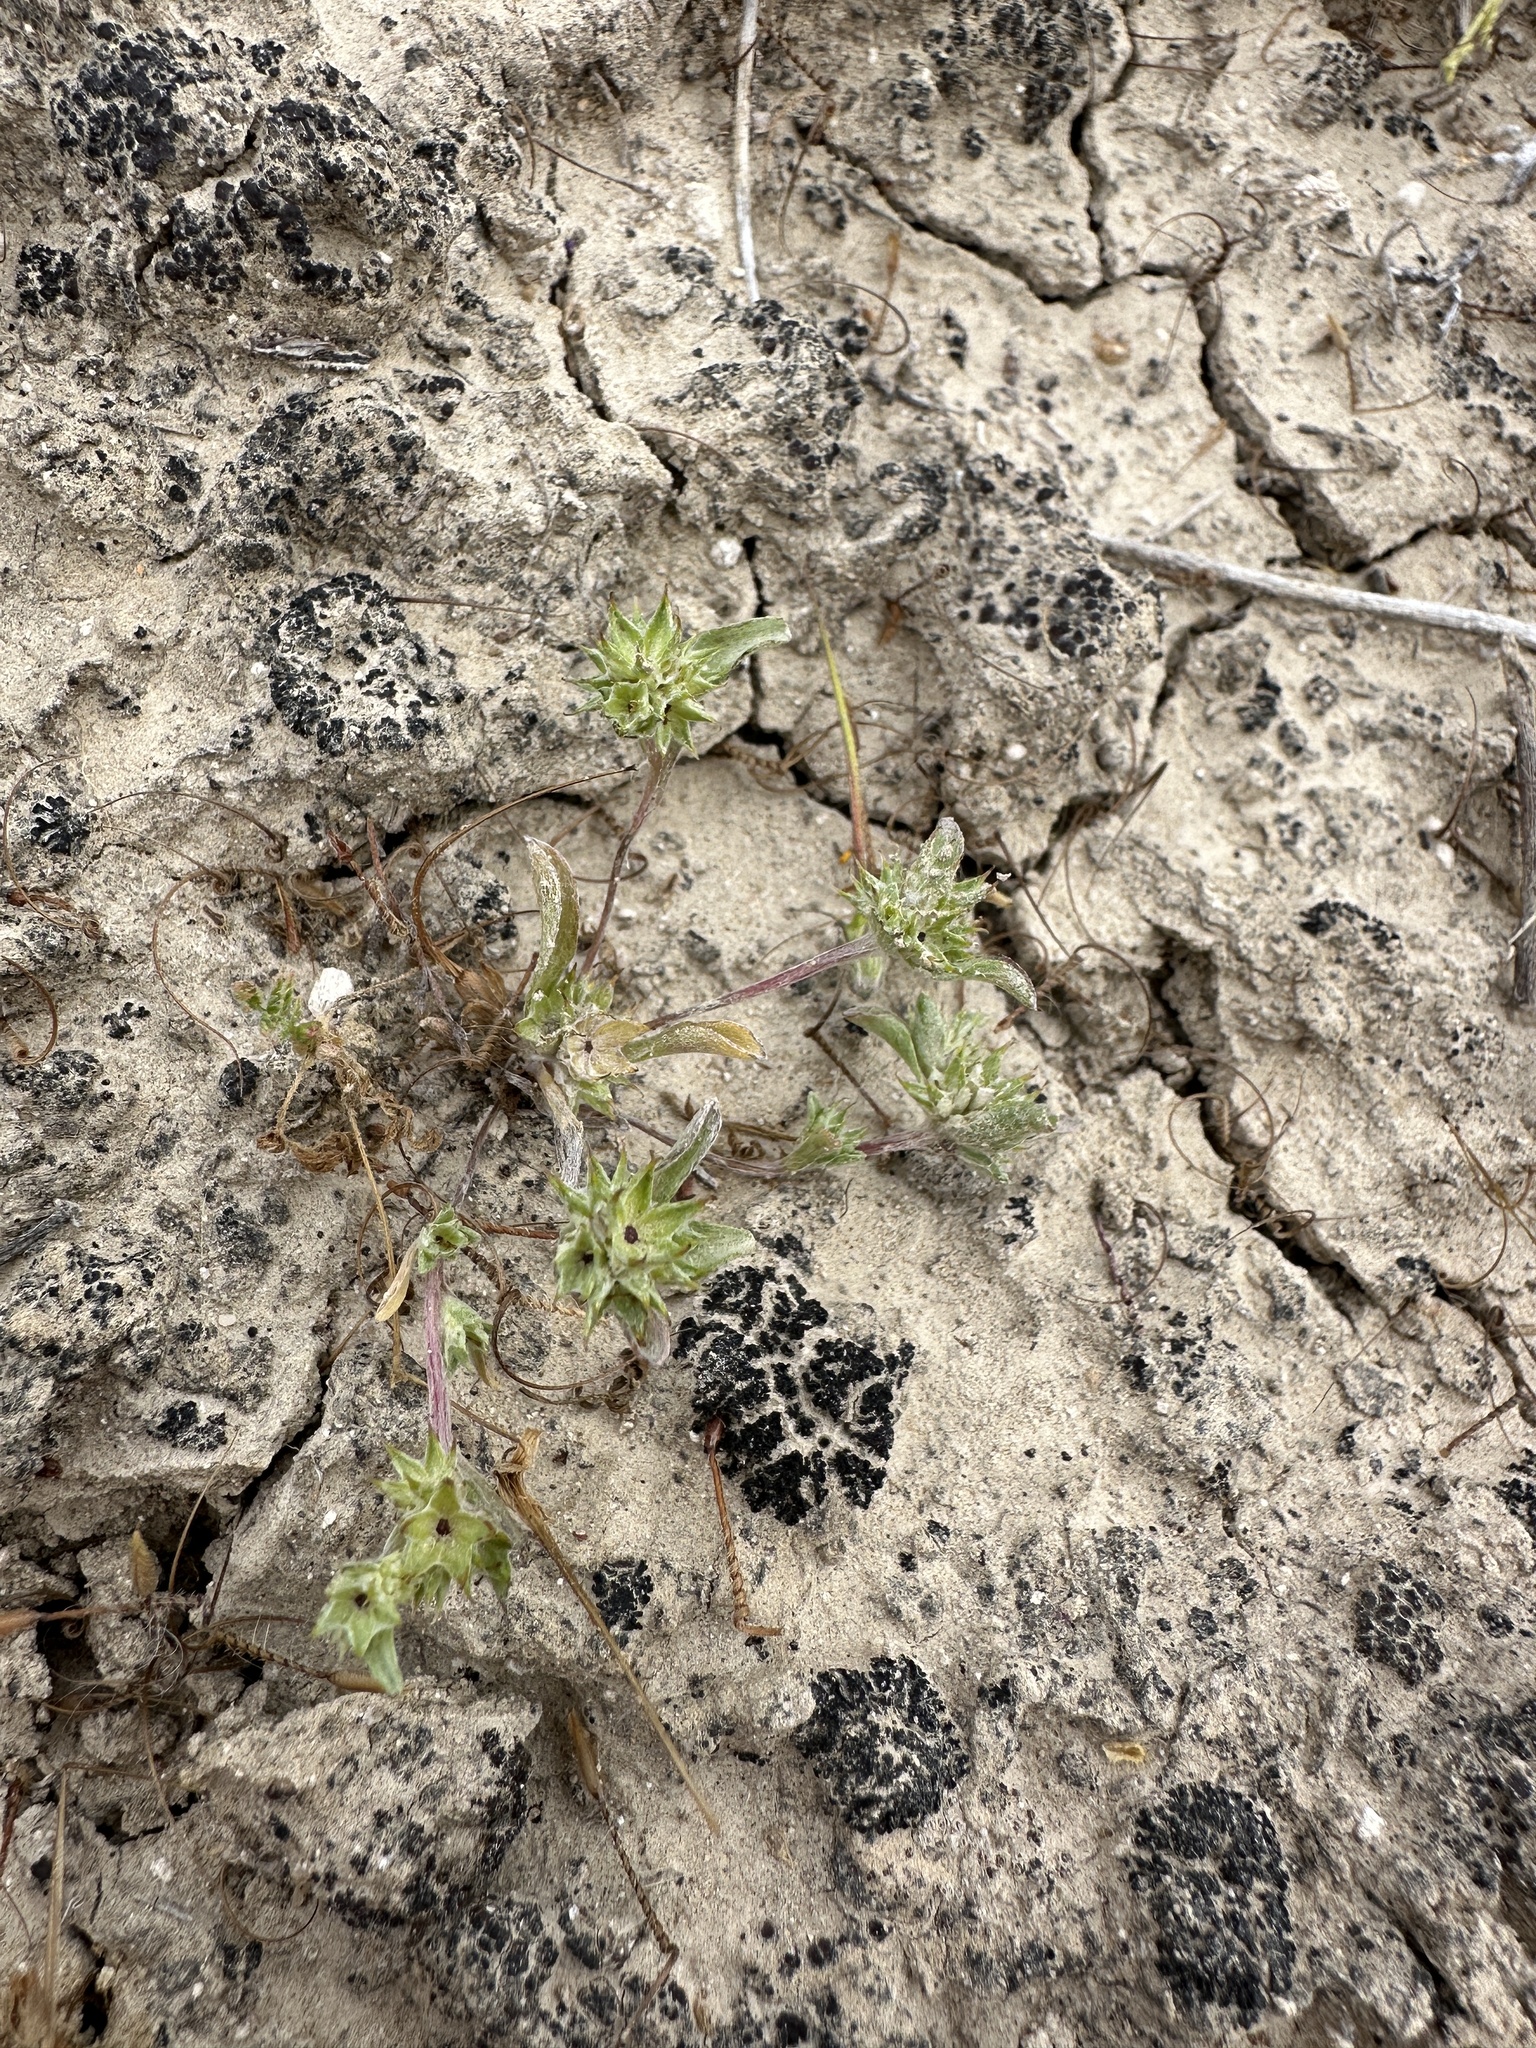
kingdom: Plantae
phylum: Tracheophyta
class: Magnoliopsida
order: Asterales
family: Asteraceae
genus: Ancistrocarphus
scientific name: Ancistrocarphus filagineus
